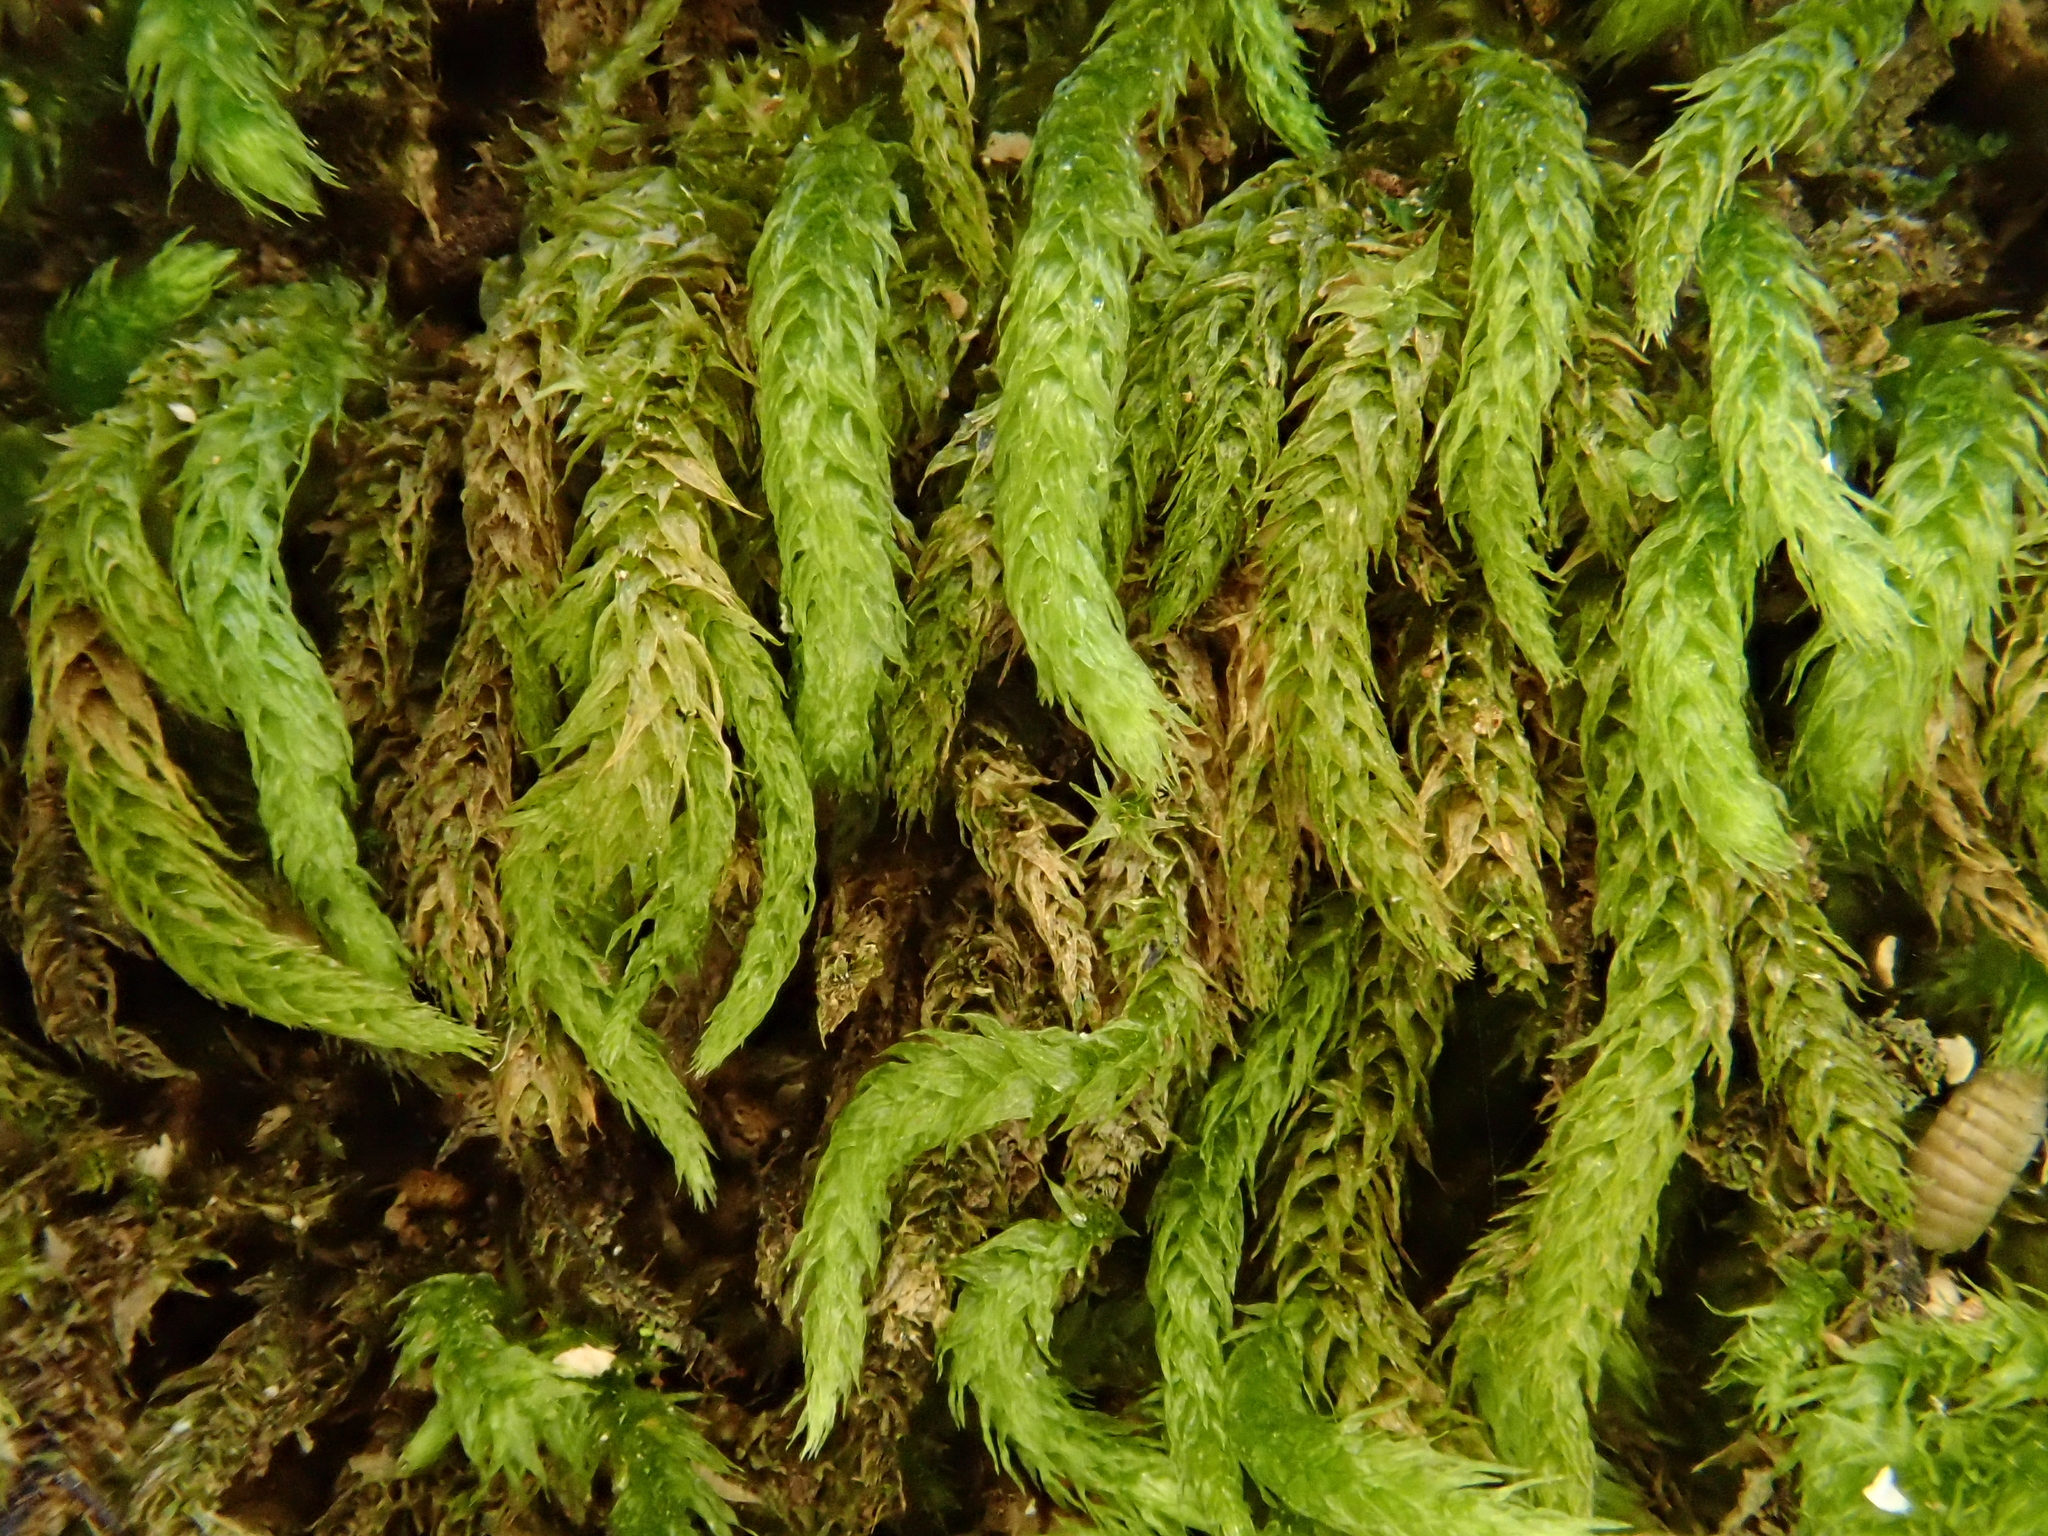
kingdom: Plantae
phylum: Bryophyta
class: Bryopsida
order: Hypnales
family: Brachytheciaceae
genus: Plasteurhynchium
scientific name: Plasteurhynchium meridionale
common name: Portland feather-moss
